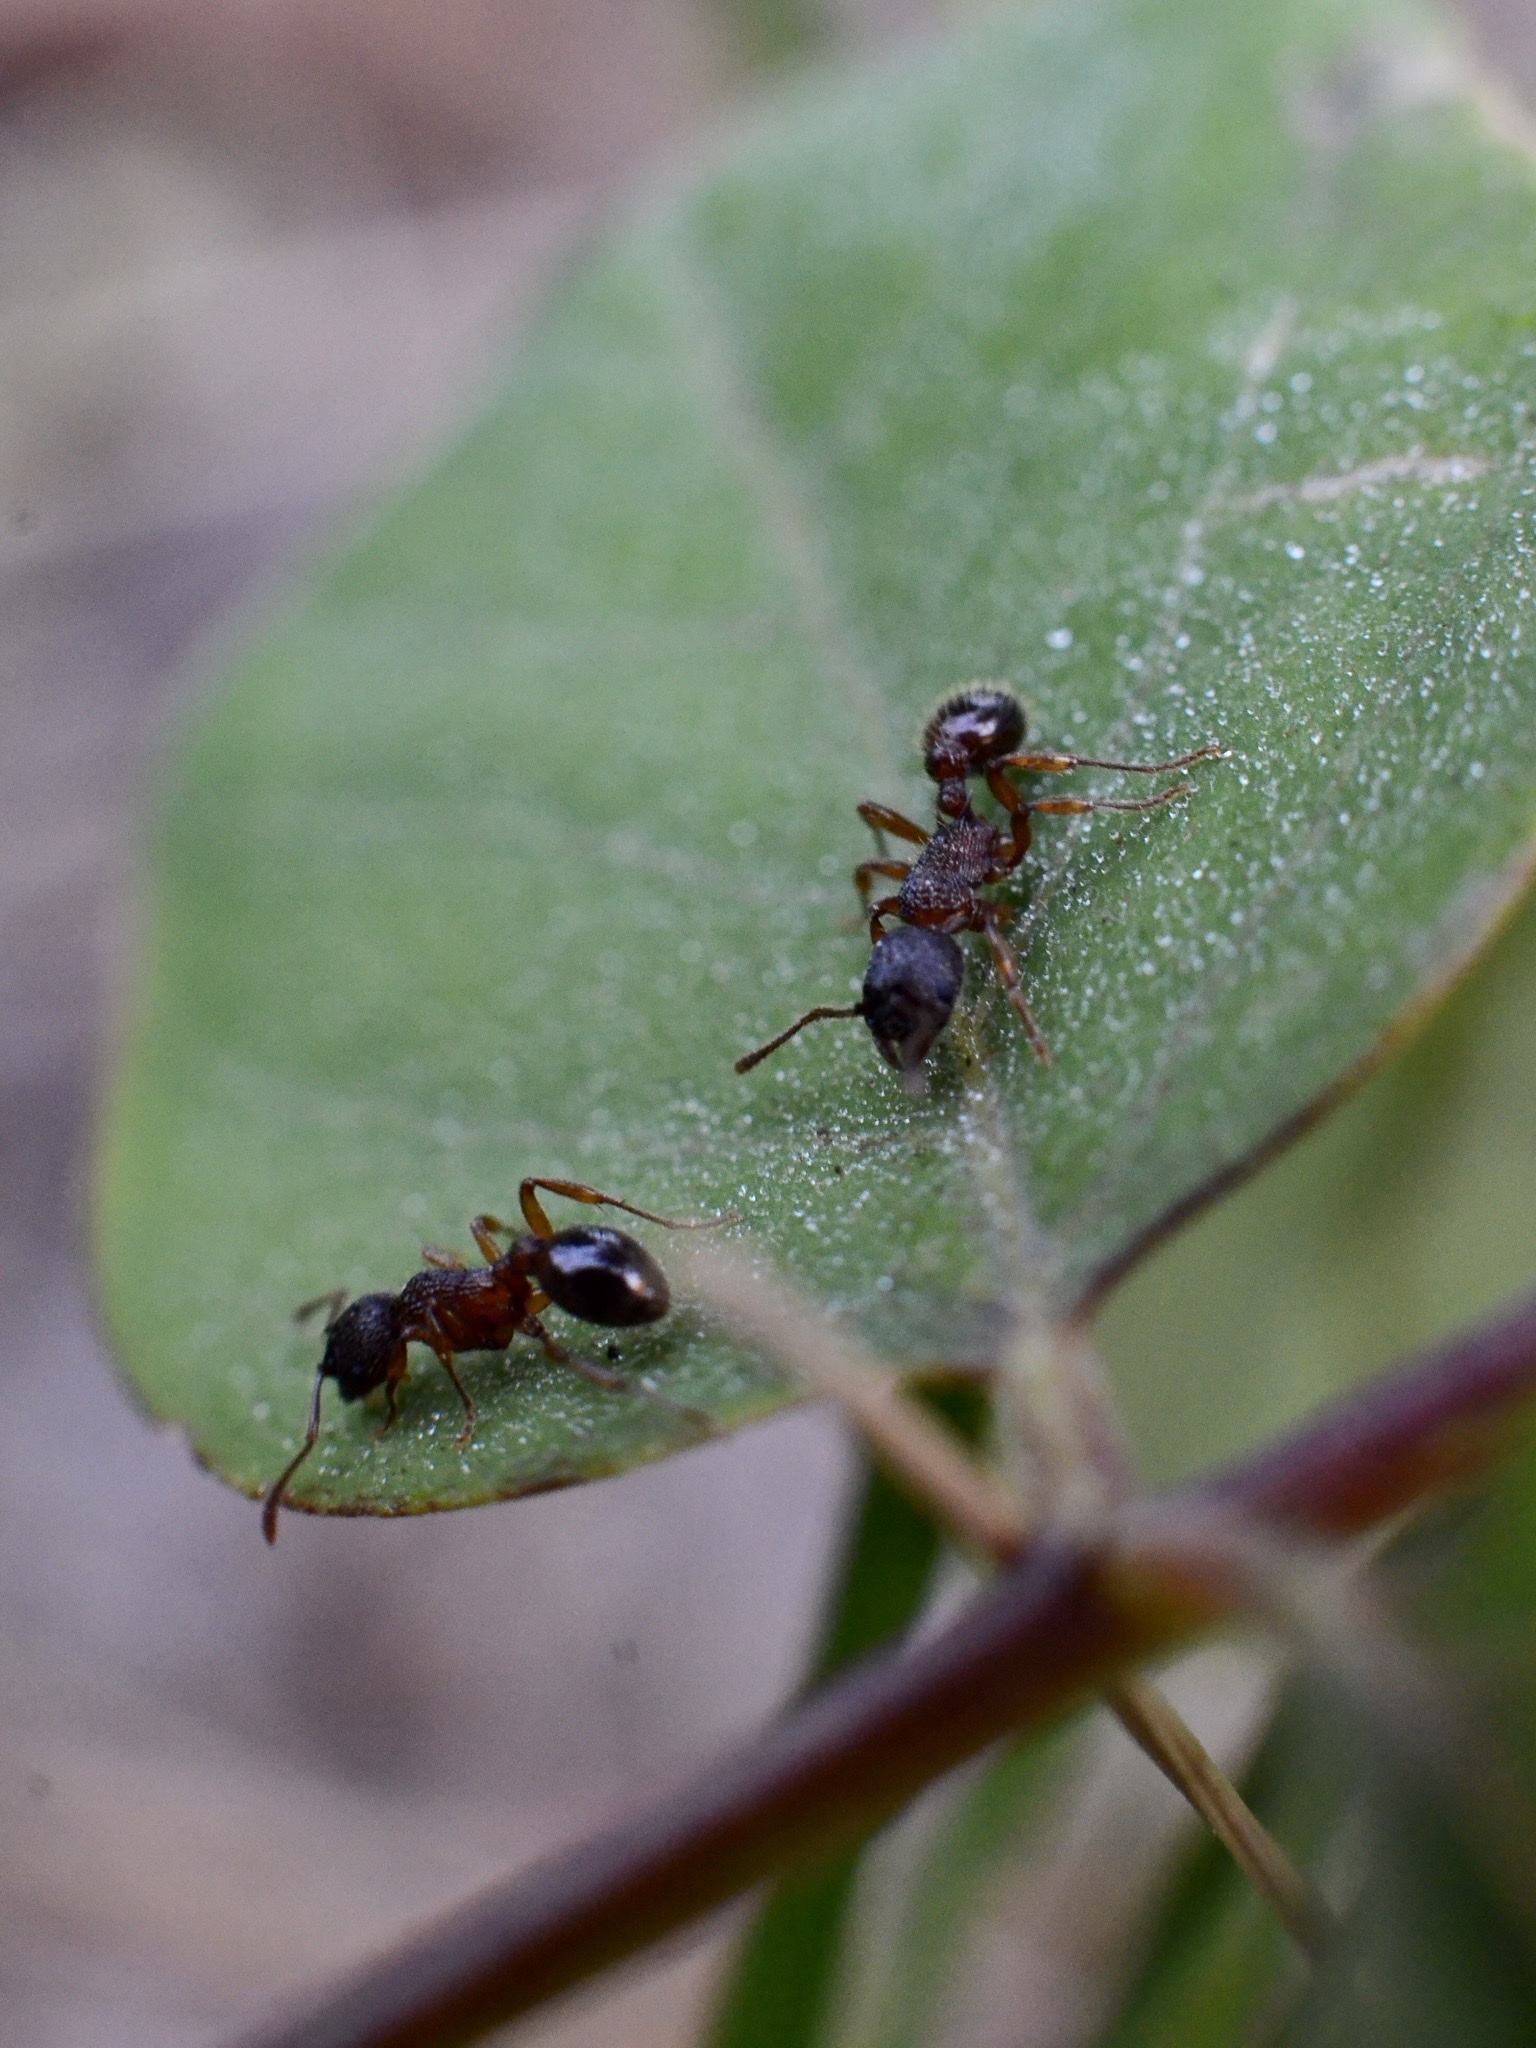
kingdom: Animalia
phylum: Arthropoda
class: Insecta
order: Hymenoptera
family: Formicidae
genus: Myrmica
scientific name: Myrmica
